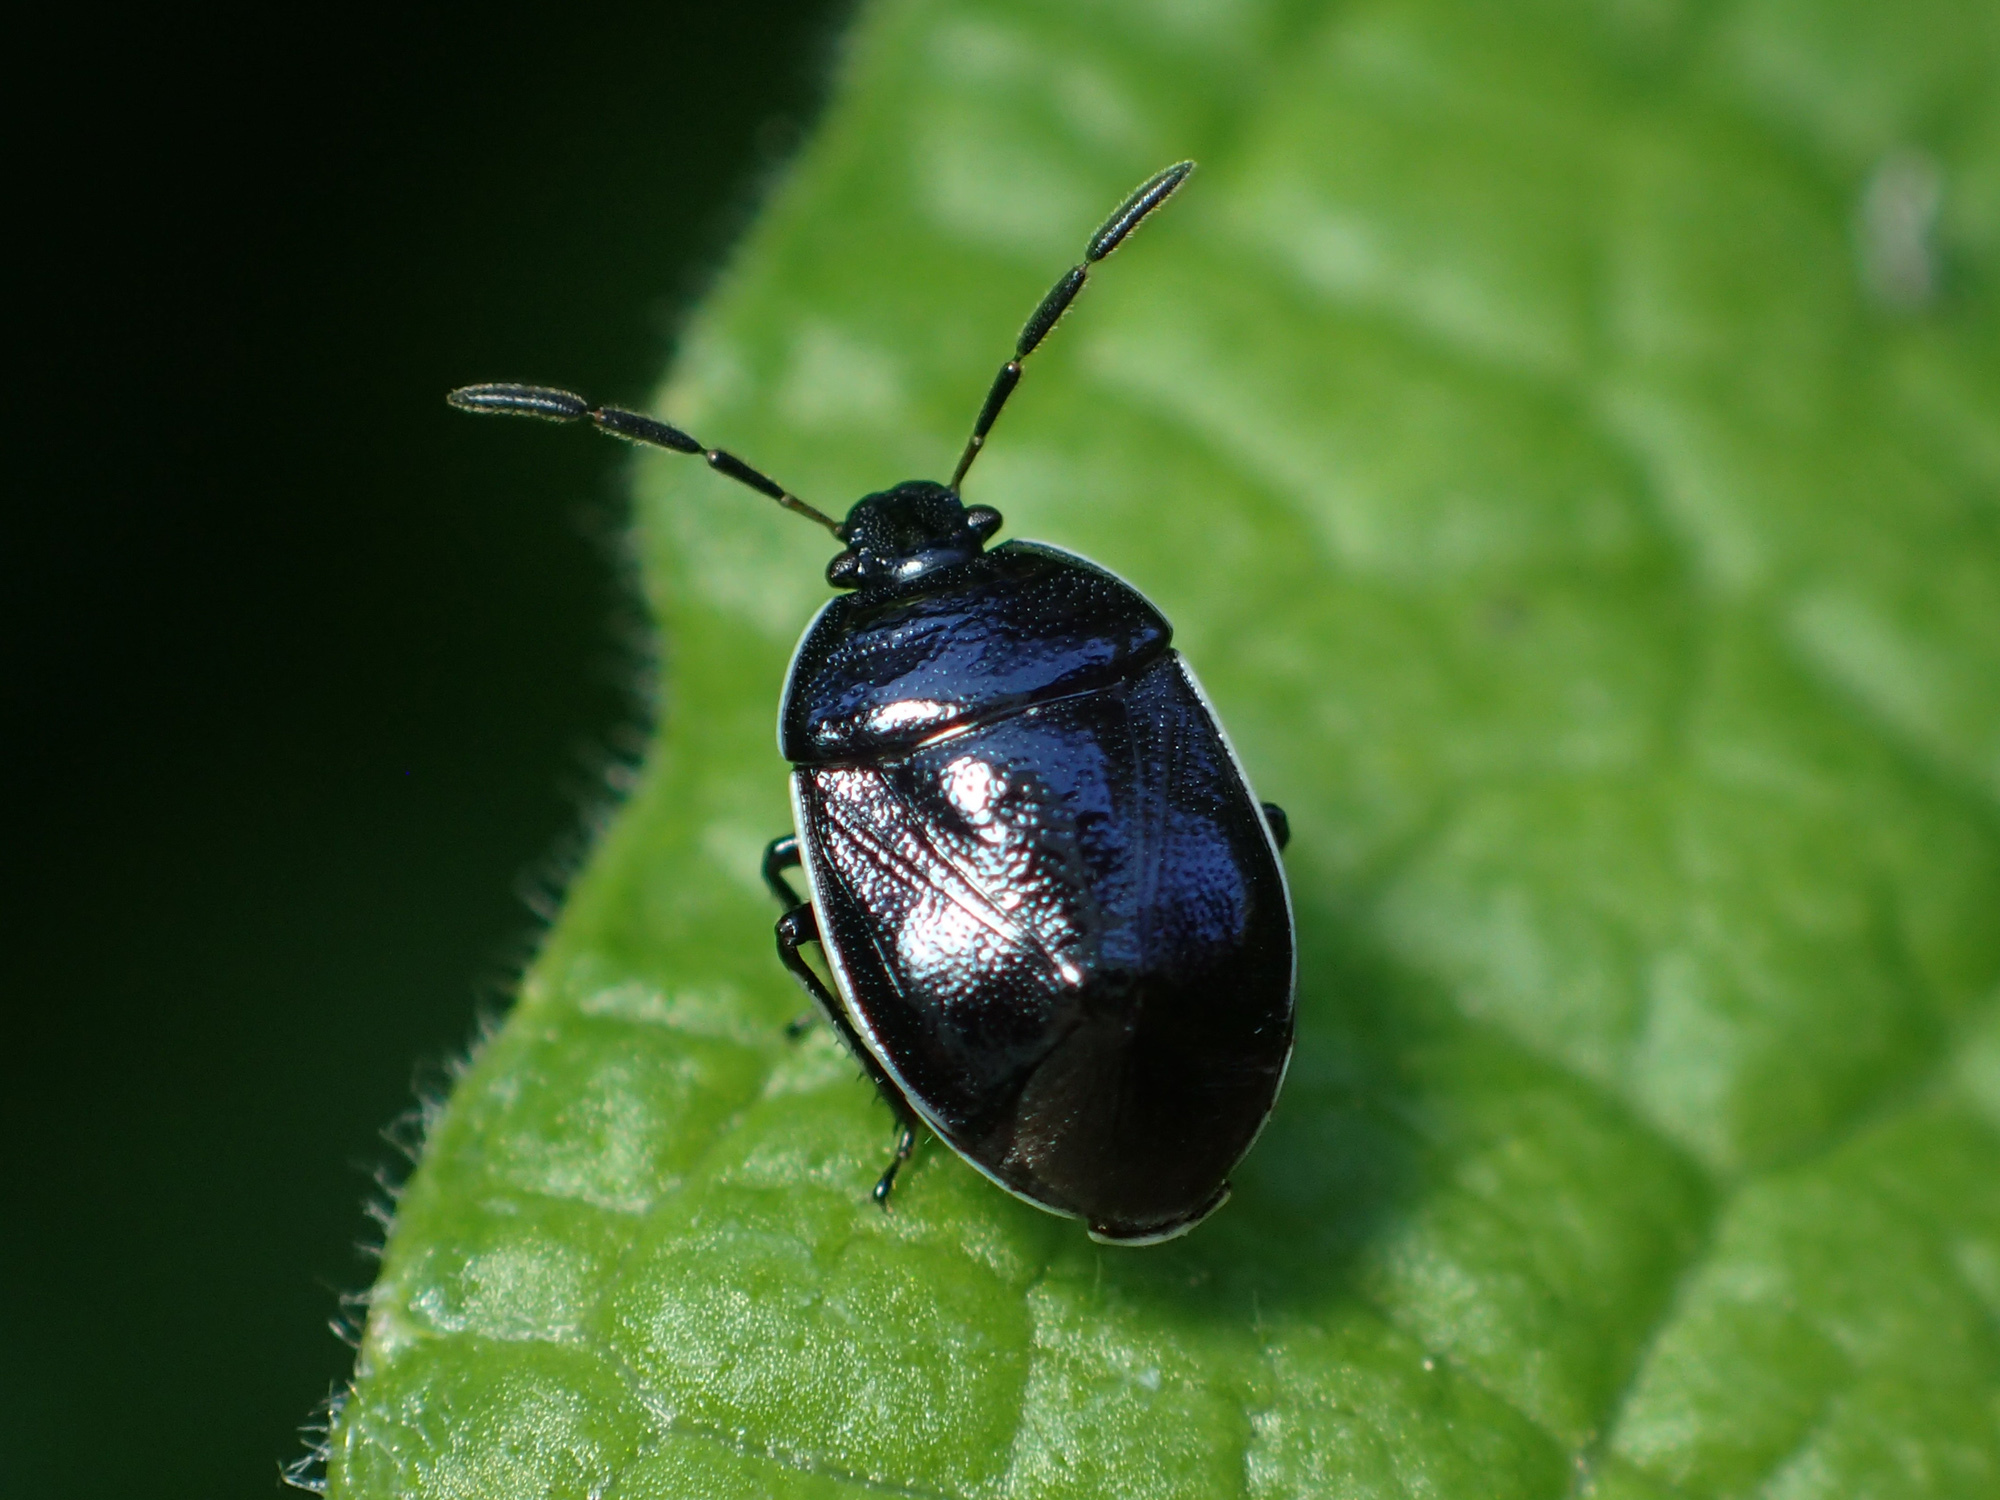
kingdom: Animalia
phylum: Arthropoda
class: Insecta
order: Hemiptera
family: Cydnidae
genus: Sehirus
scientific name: Sehirus cinctus
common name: White-margined burrower bug
